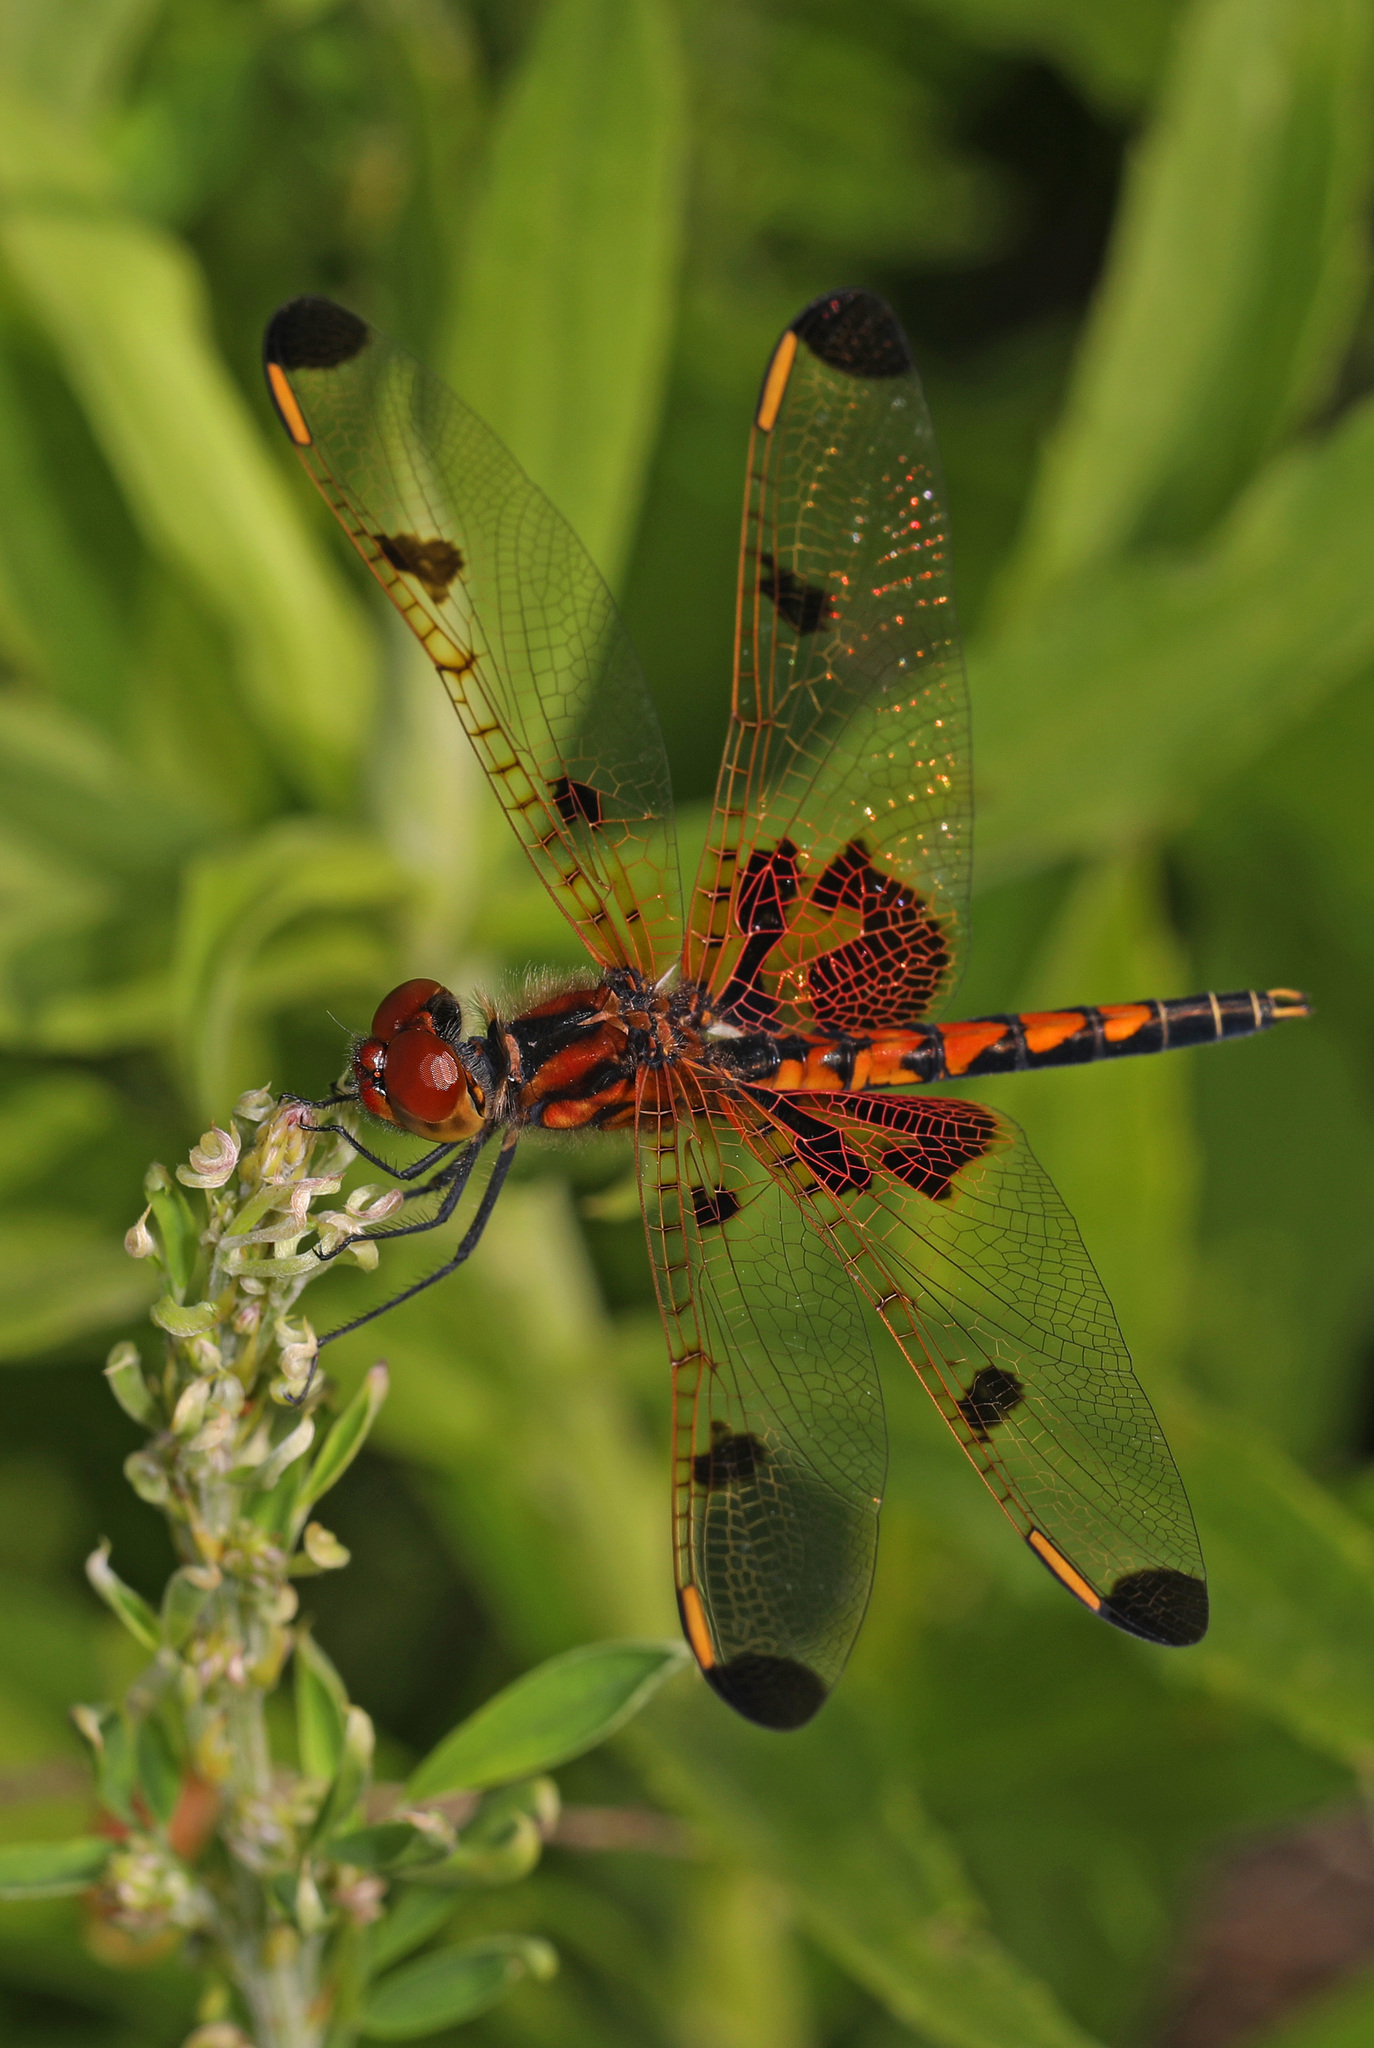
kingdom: Animalia
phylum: Arthropoda
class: Insecta
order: Odonata
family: Libellulidae
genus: Celithemis
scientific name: Celithemis elisa
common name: Calico pennant
